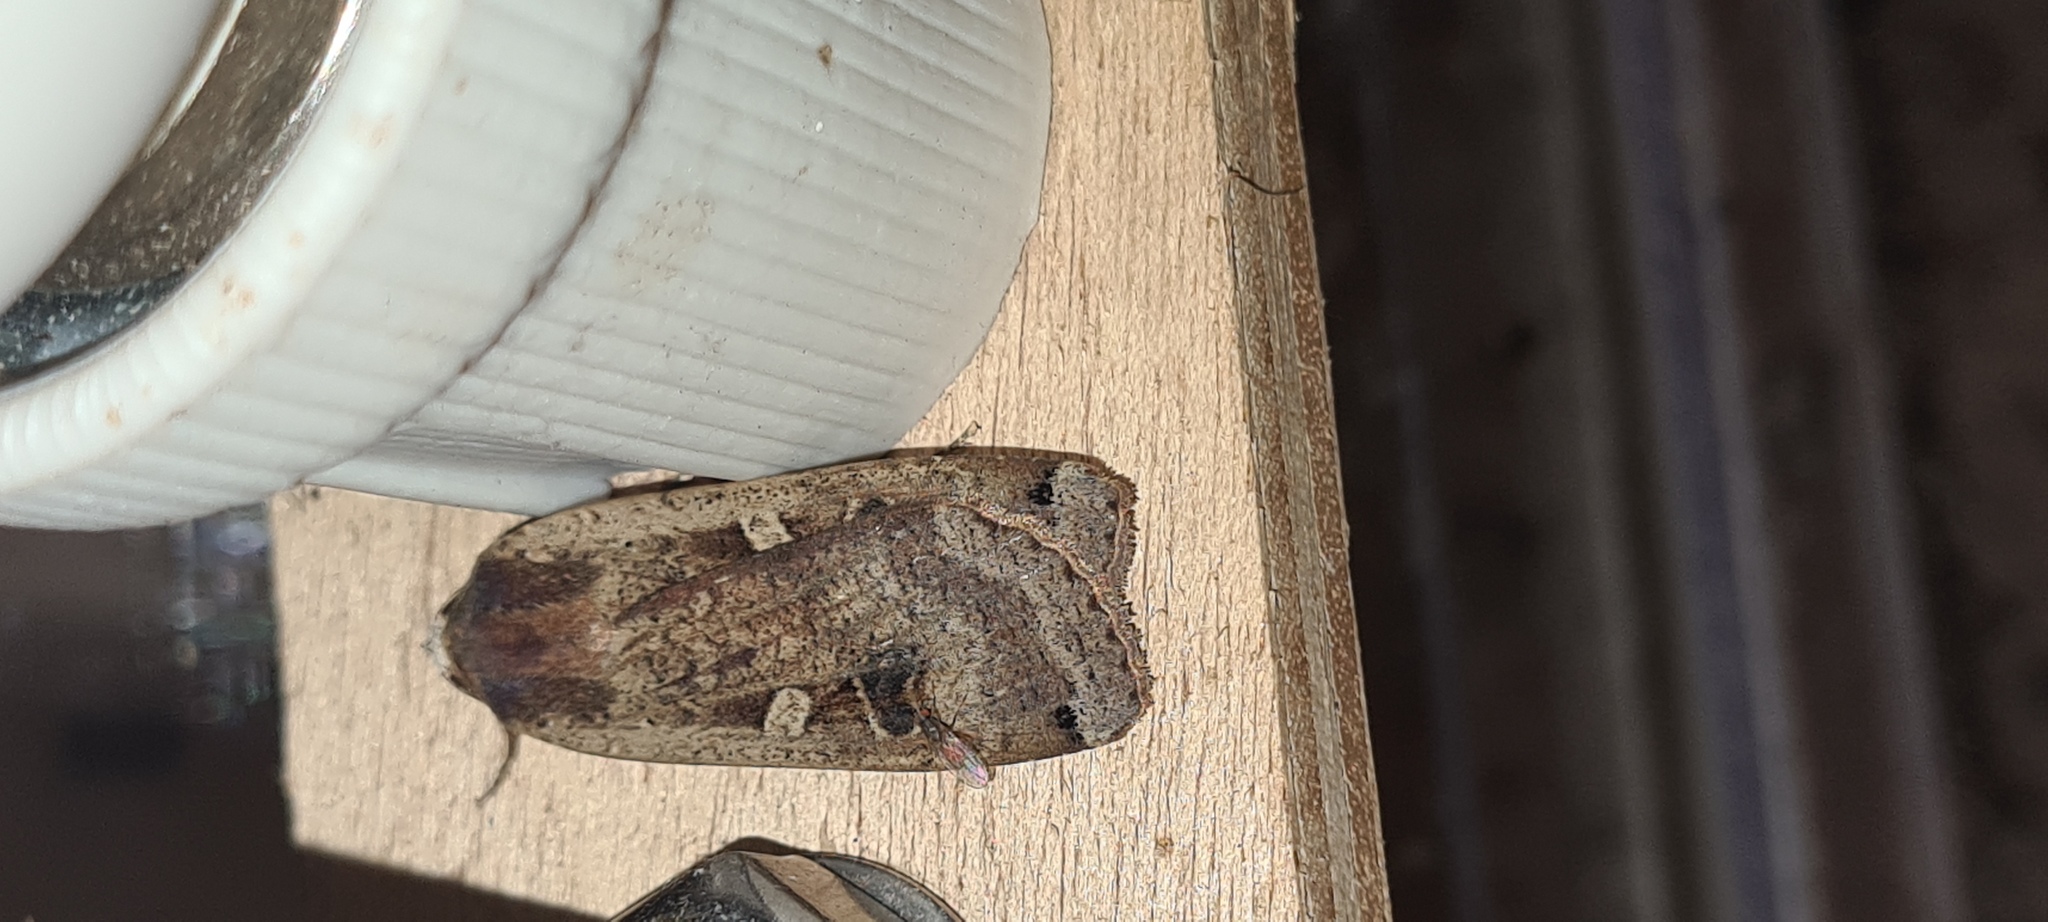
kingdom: Animalia
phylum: Arthropoda
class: Insecta
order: Lepidoptera
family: Noctuidae
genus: Noctua
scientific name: Noctua pronuba
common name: Large yellow underwing
